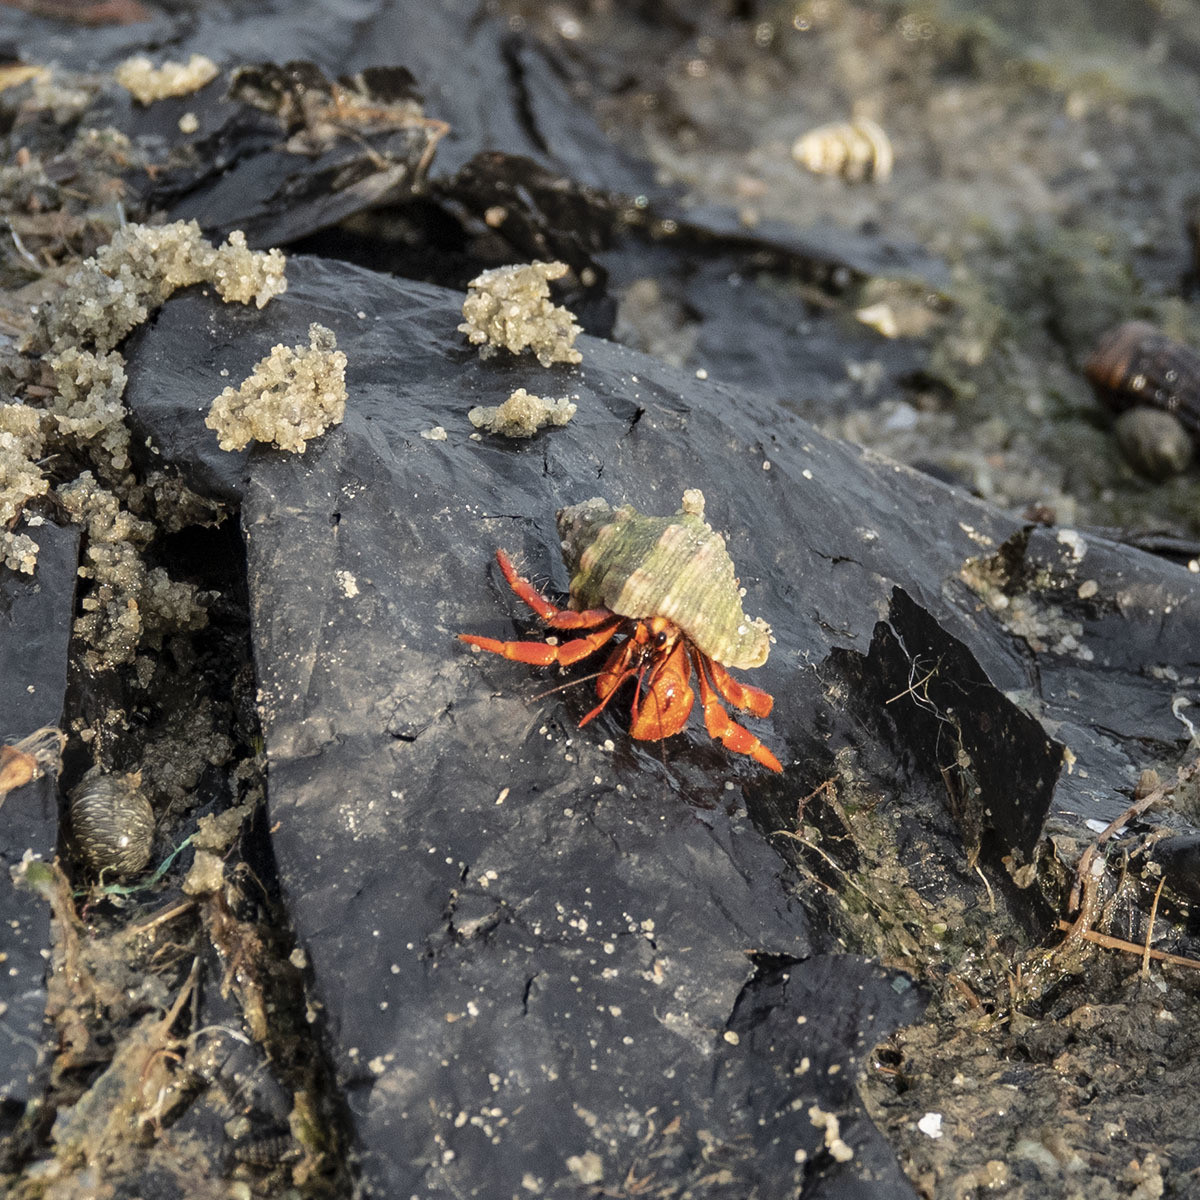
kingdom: Animalia
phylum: Arthropoda
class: Malacostraca
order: Decapoda
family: Coenobitidae
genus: Coenobita
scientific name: Coenobita violascens
